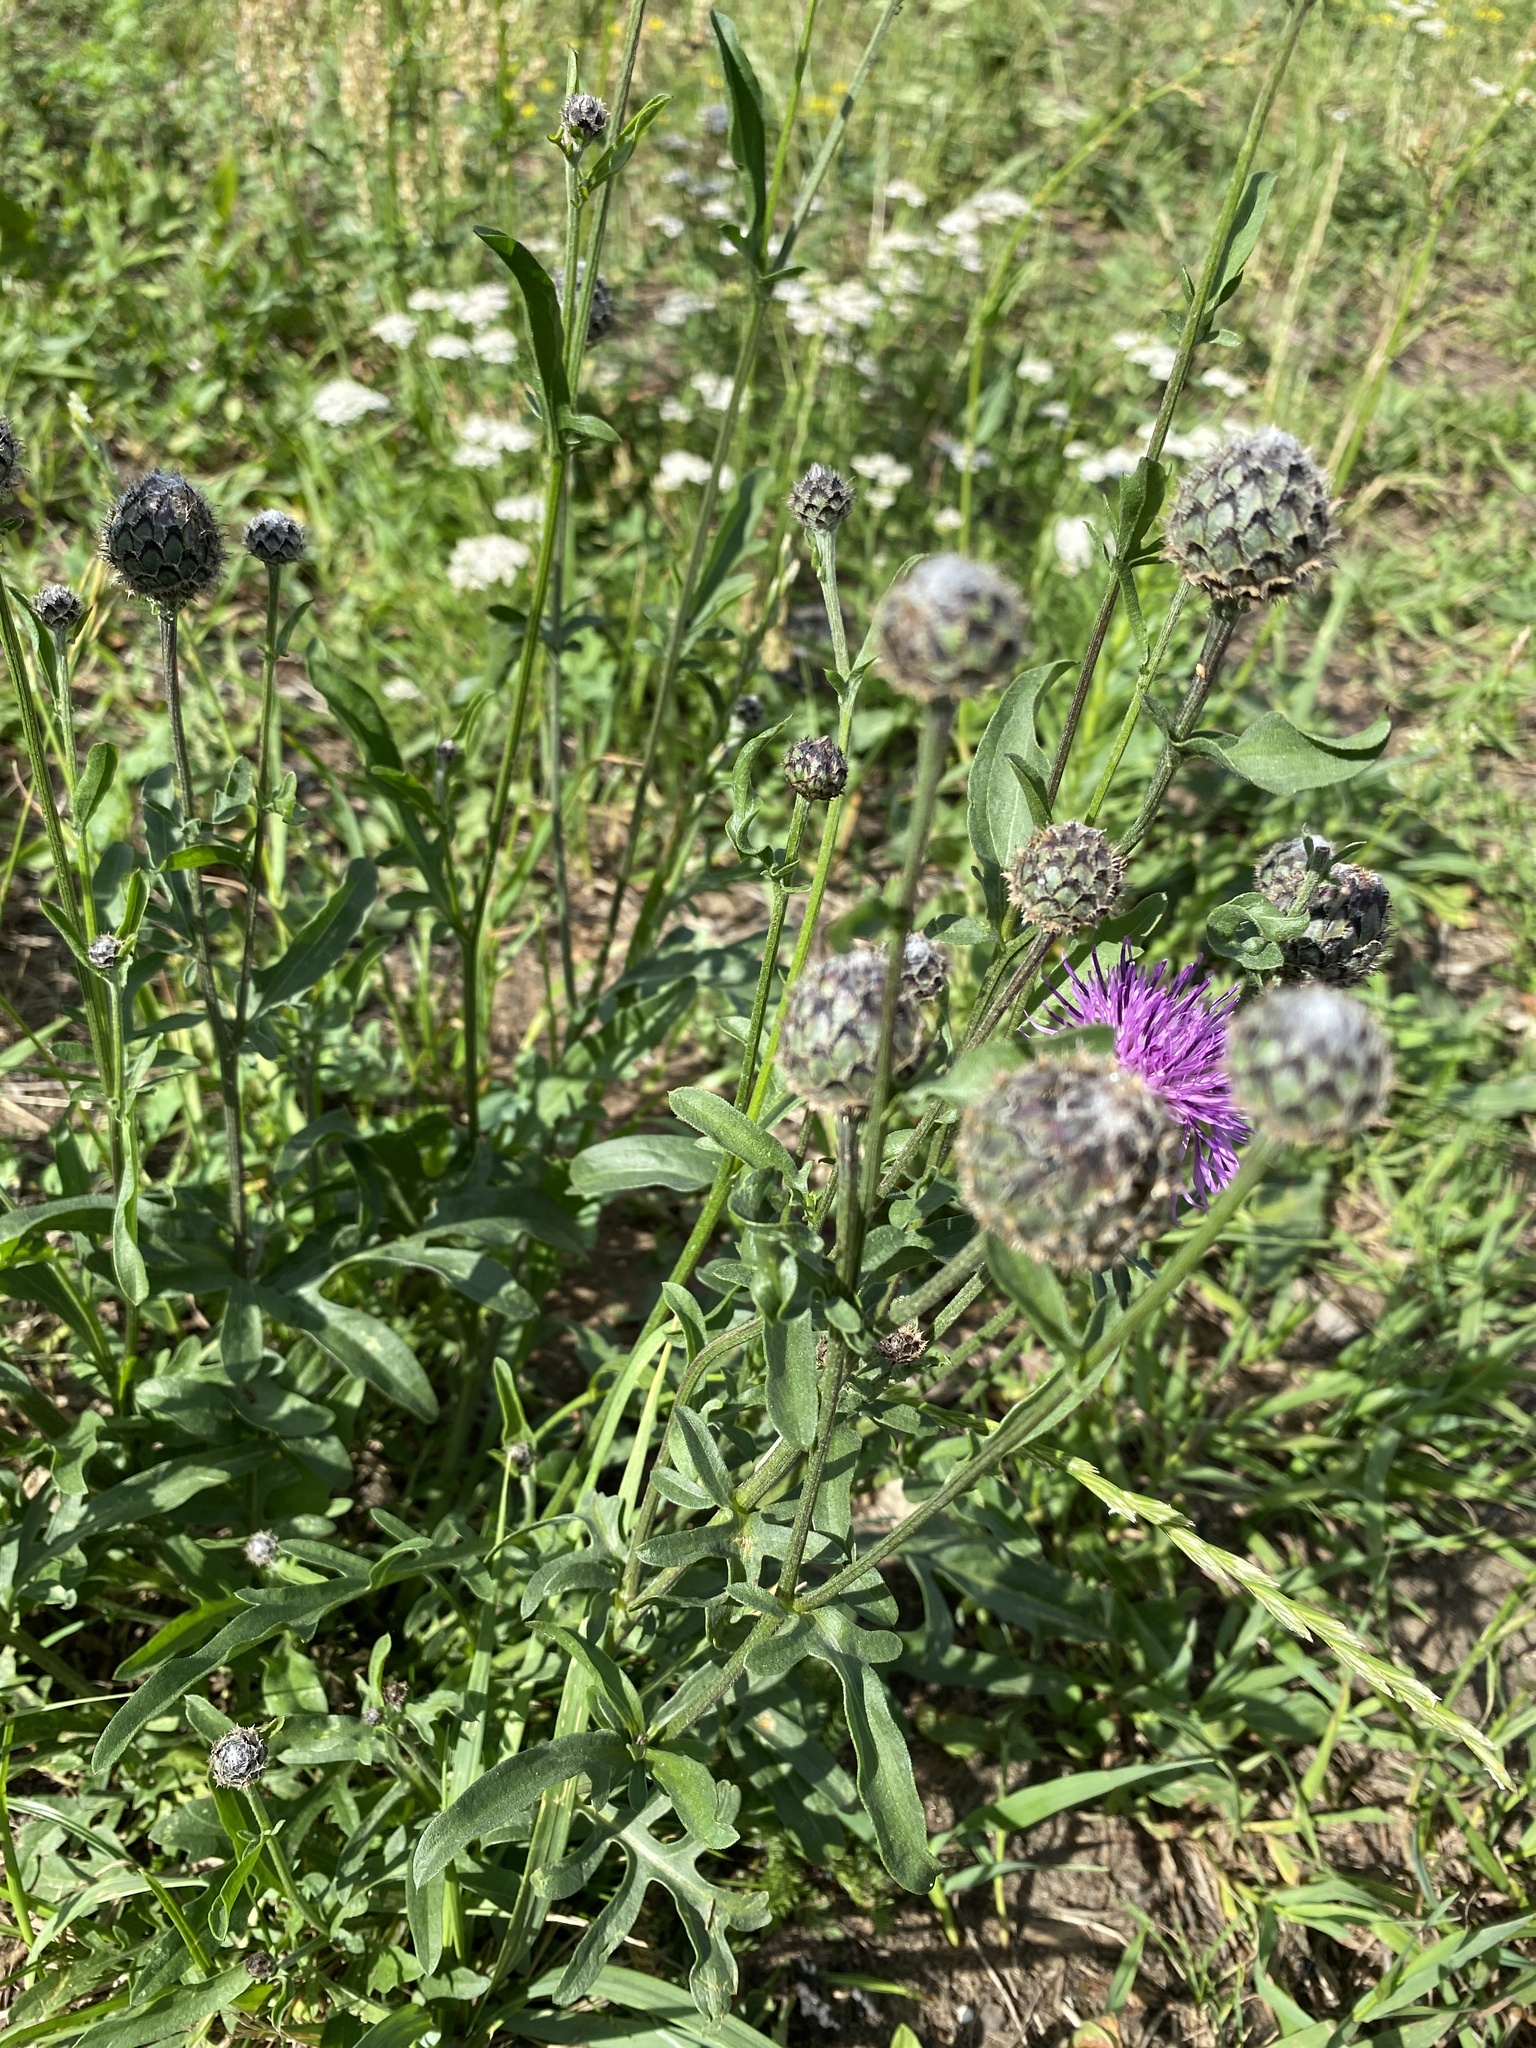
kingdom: Plantae
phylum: Tracheophyta
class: Magnoliopsida
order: Asterales
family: Asteraceae
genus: Centaurea
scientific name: Centaurea scabiosa
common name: Greater knapweed
